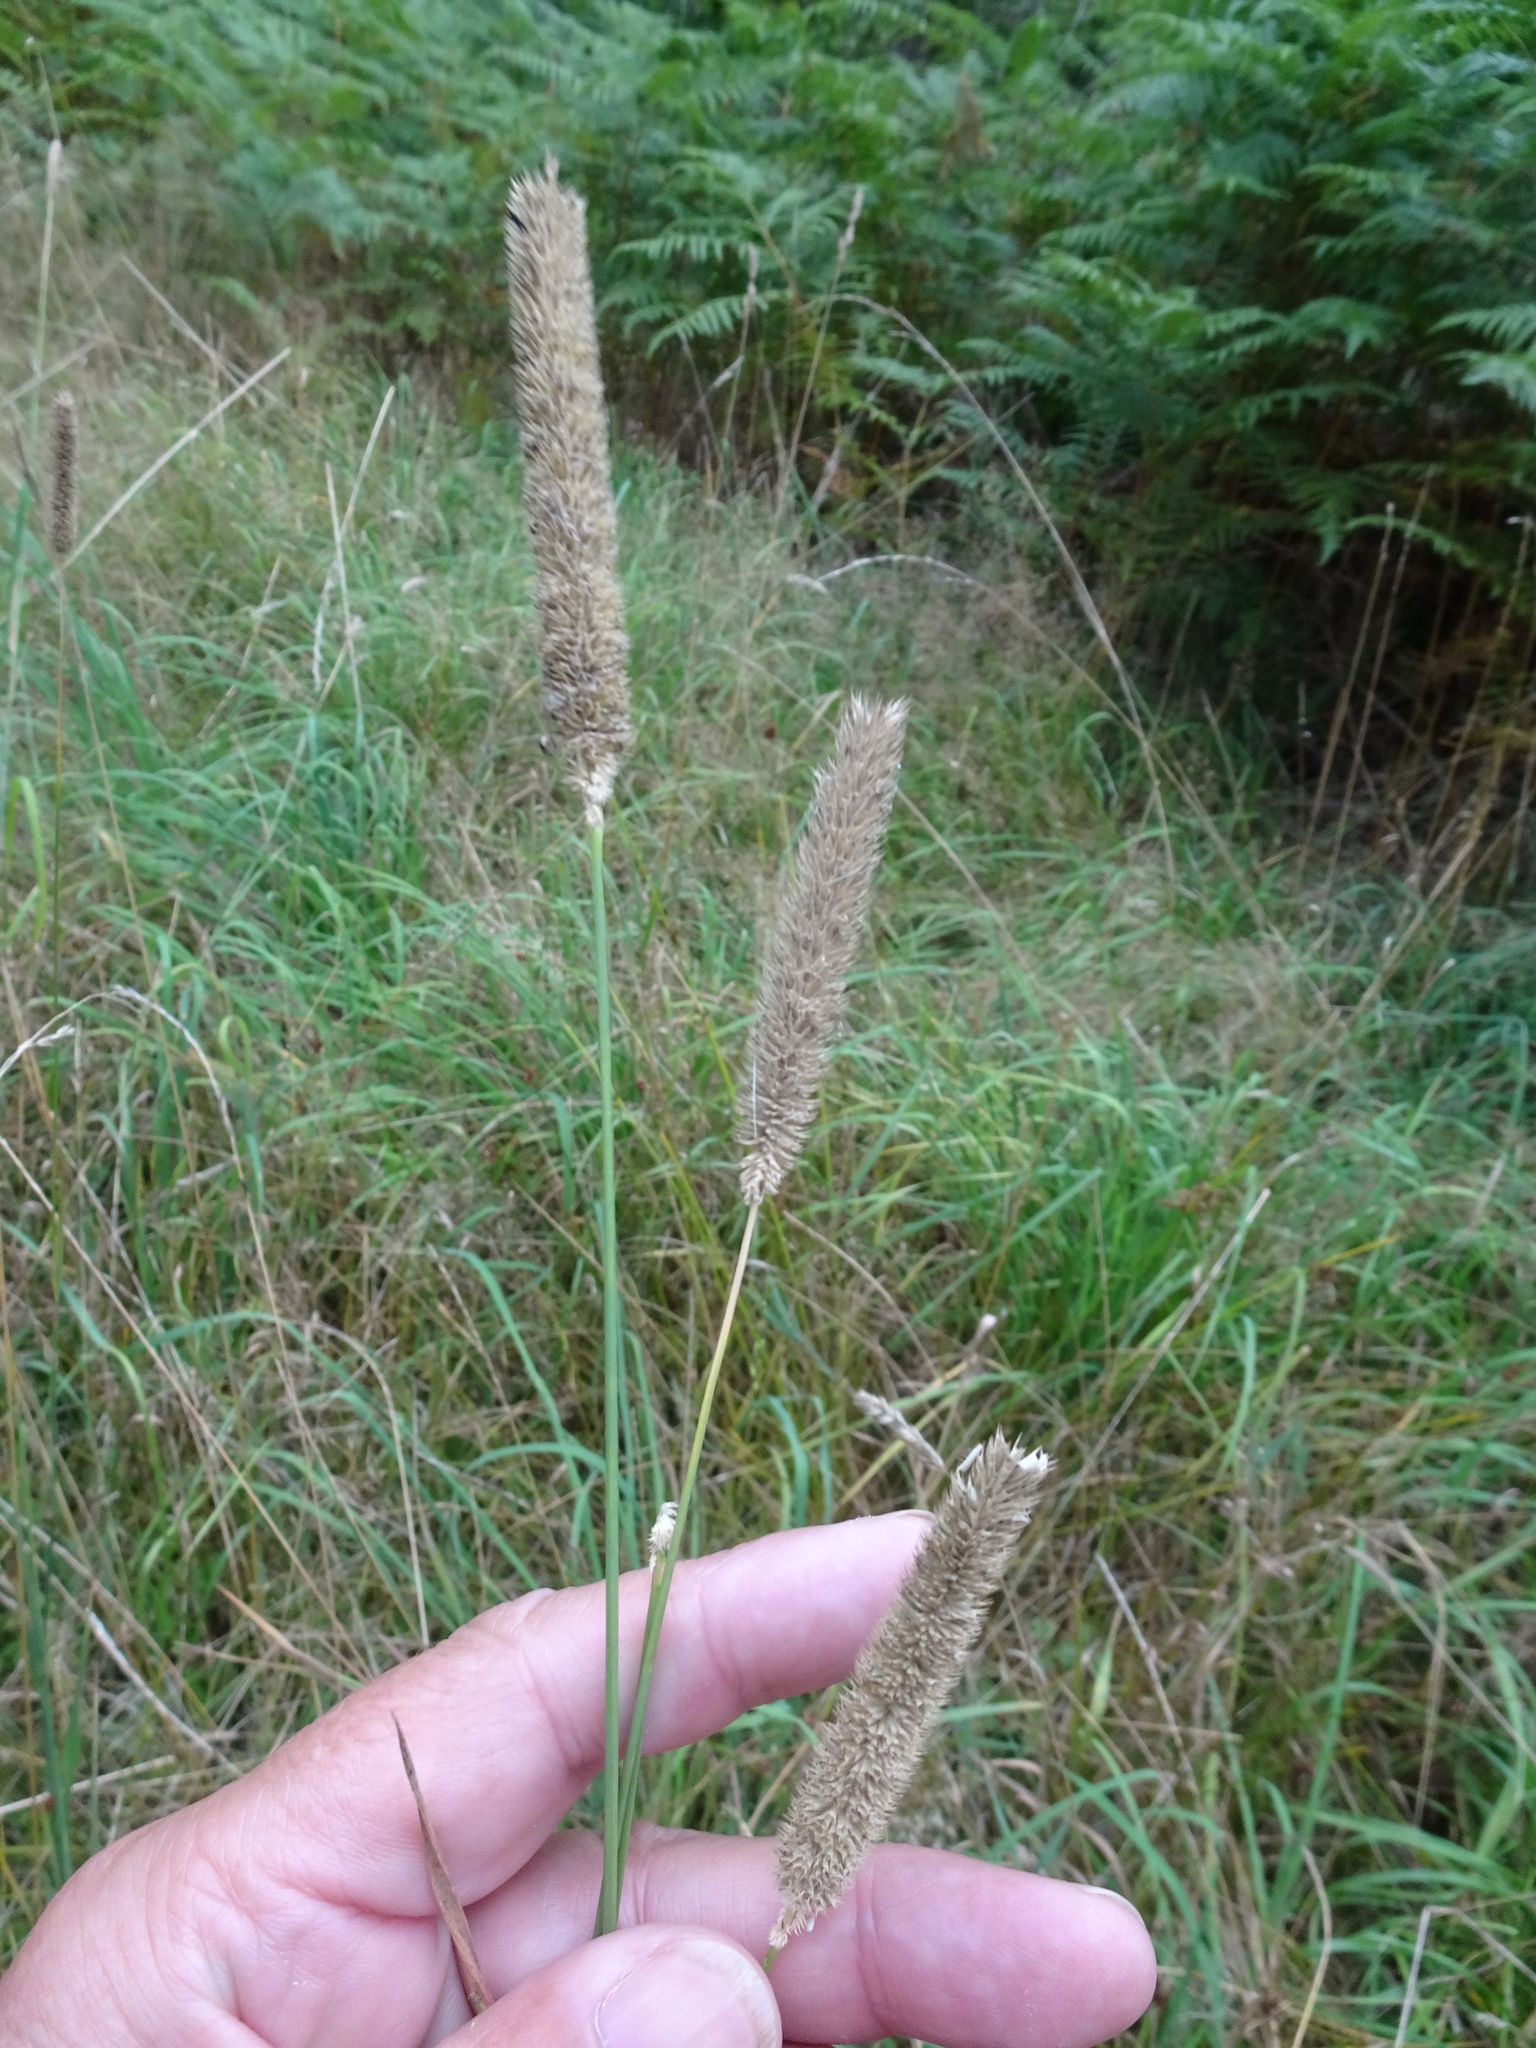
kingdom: Plantae
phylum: Tracheophyta
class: Liliopsida
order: Poales
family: Poaceae
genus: Phleum
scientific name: Phleum pratense
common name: Timothy grass
